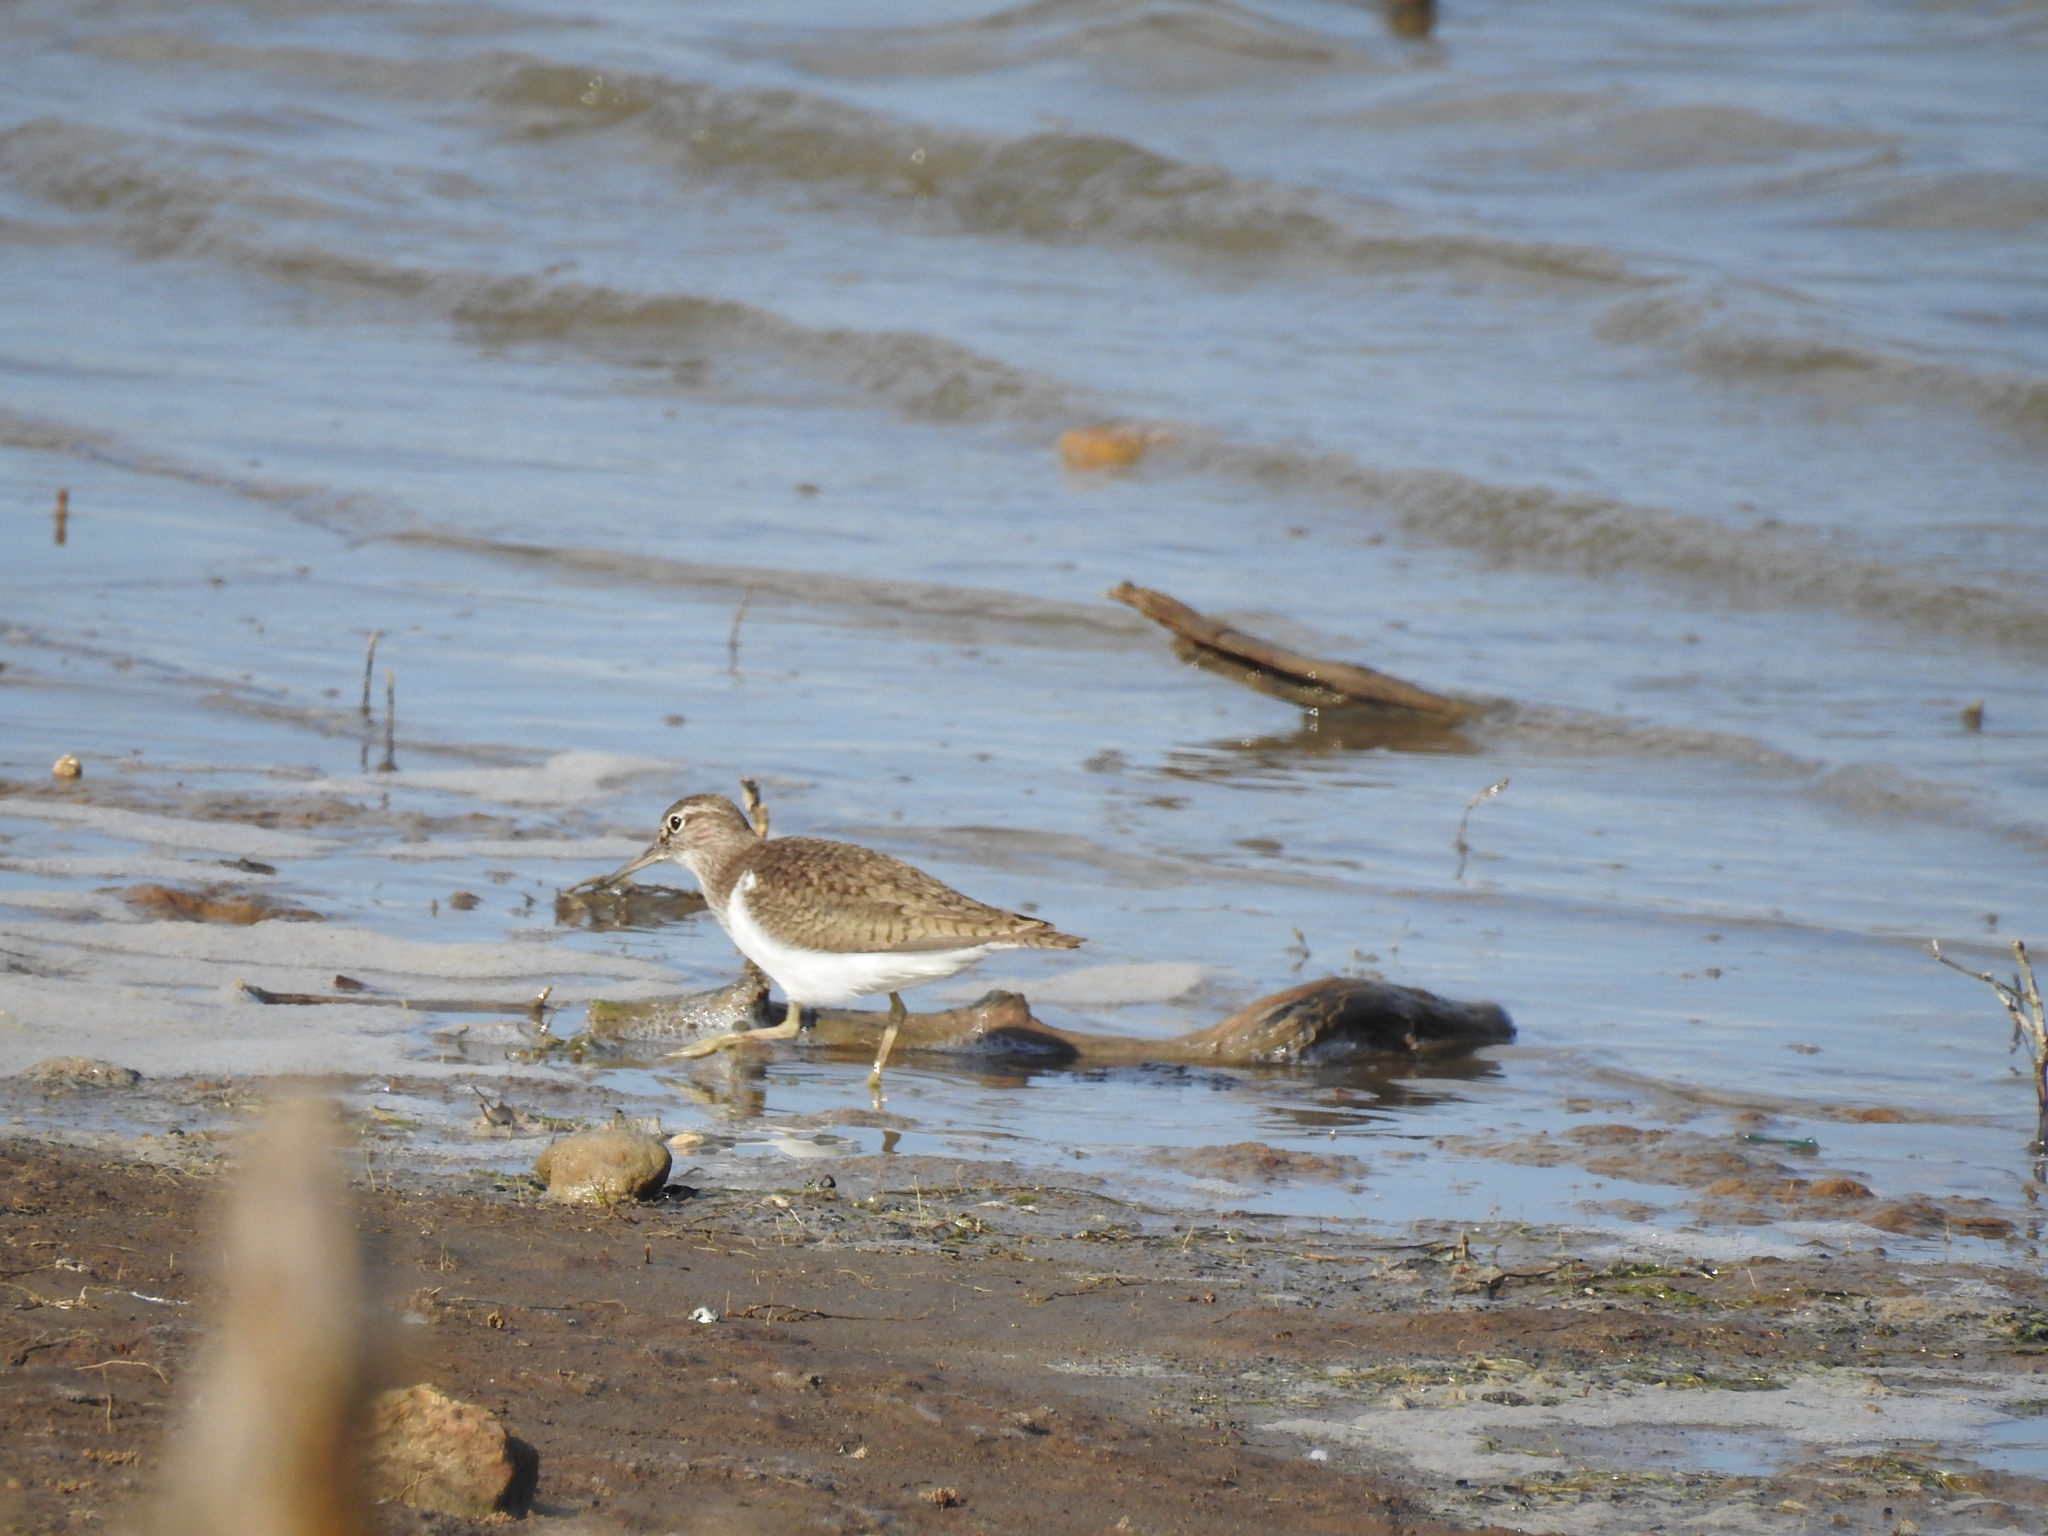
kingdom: Animalia
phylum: Chordata
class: Aves
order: Charadriiformes
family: Scolopacidae
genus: Actitis
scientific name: Actitis hypoleucos
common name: Common sandpiper
